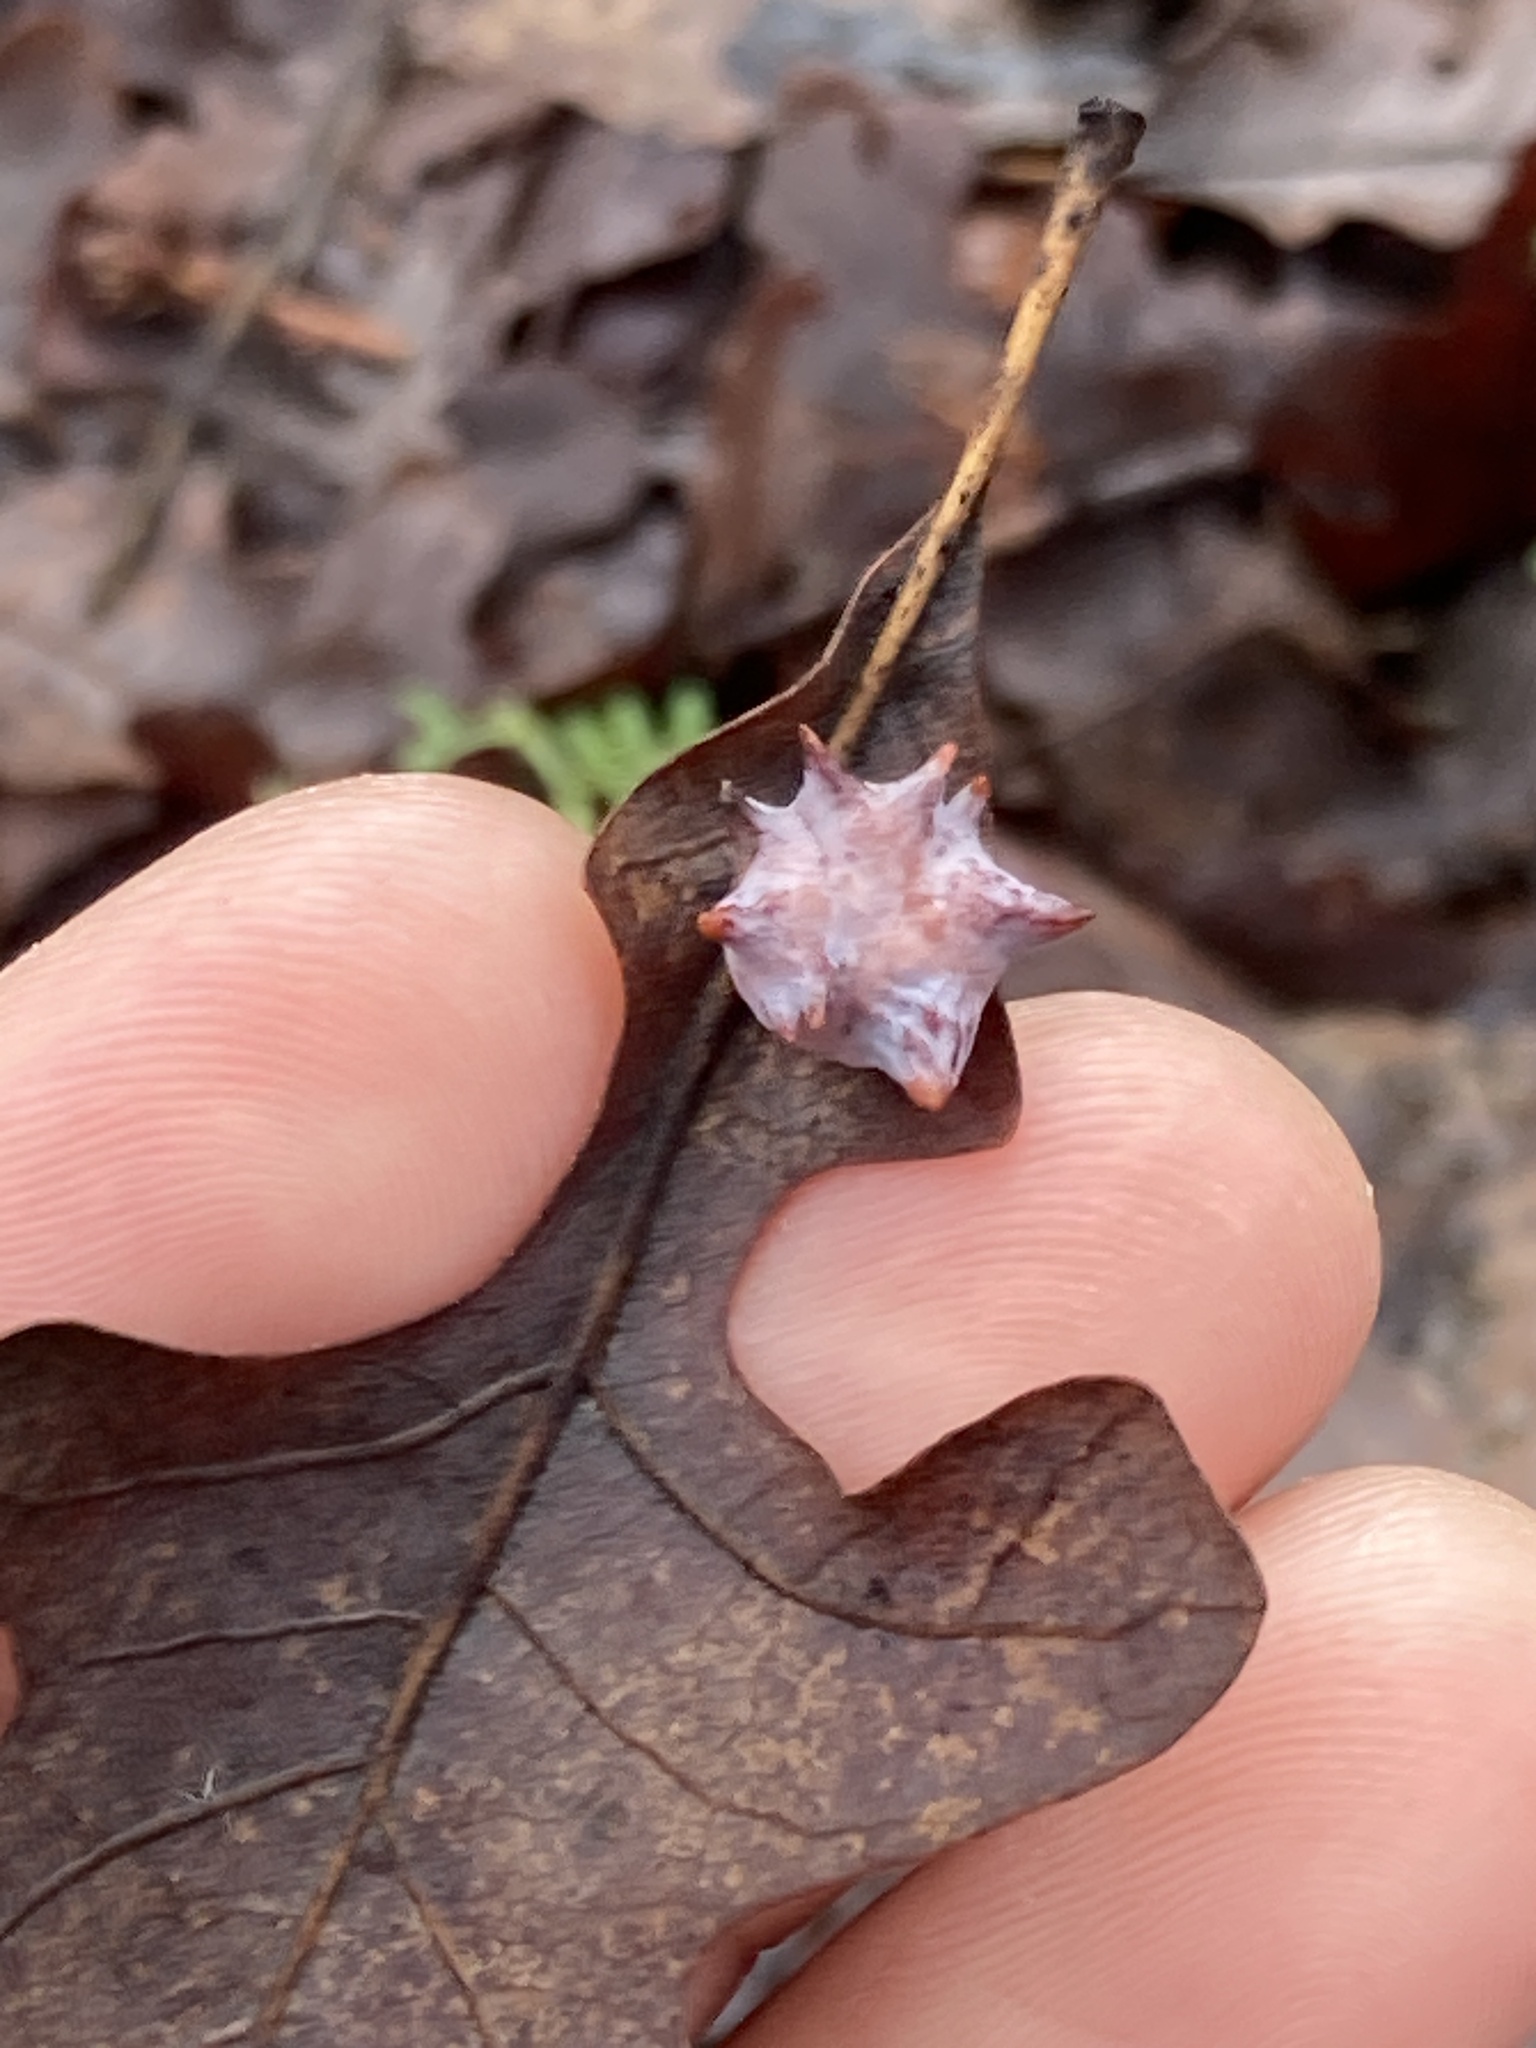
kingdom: Animalia
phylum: Arthropoda
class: Insecta
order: Hymenoptera
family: Cynipidae
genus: Cynips
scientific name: Cynips douglasi
